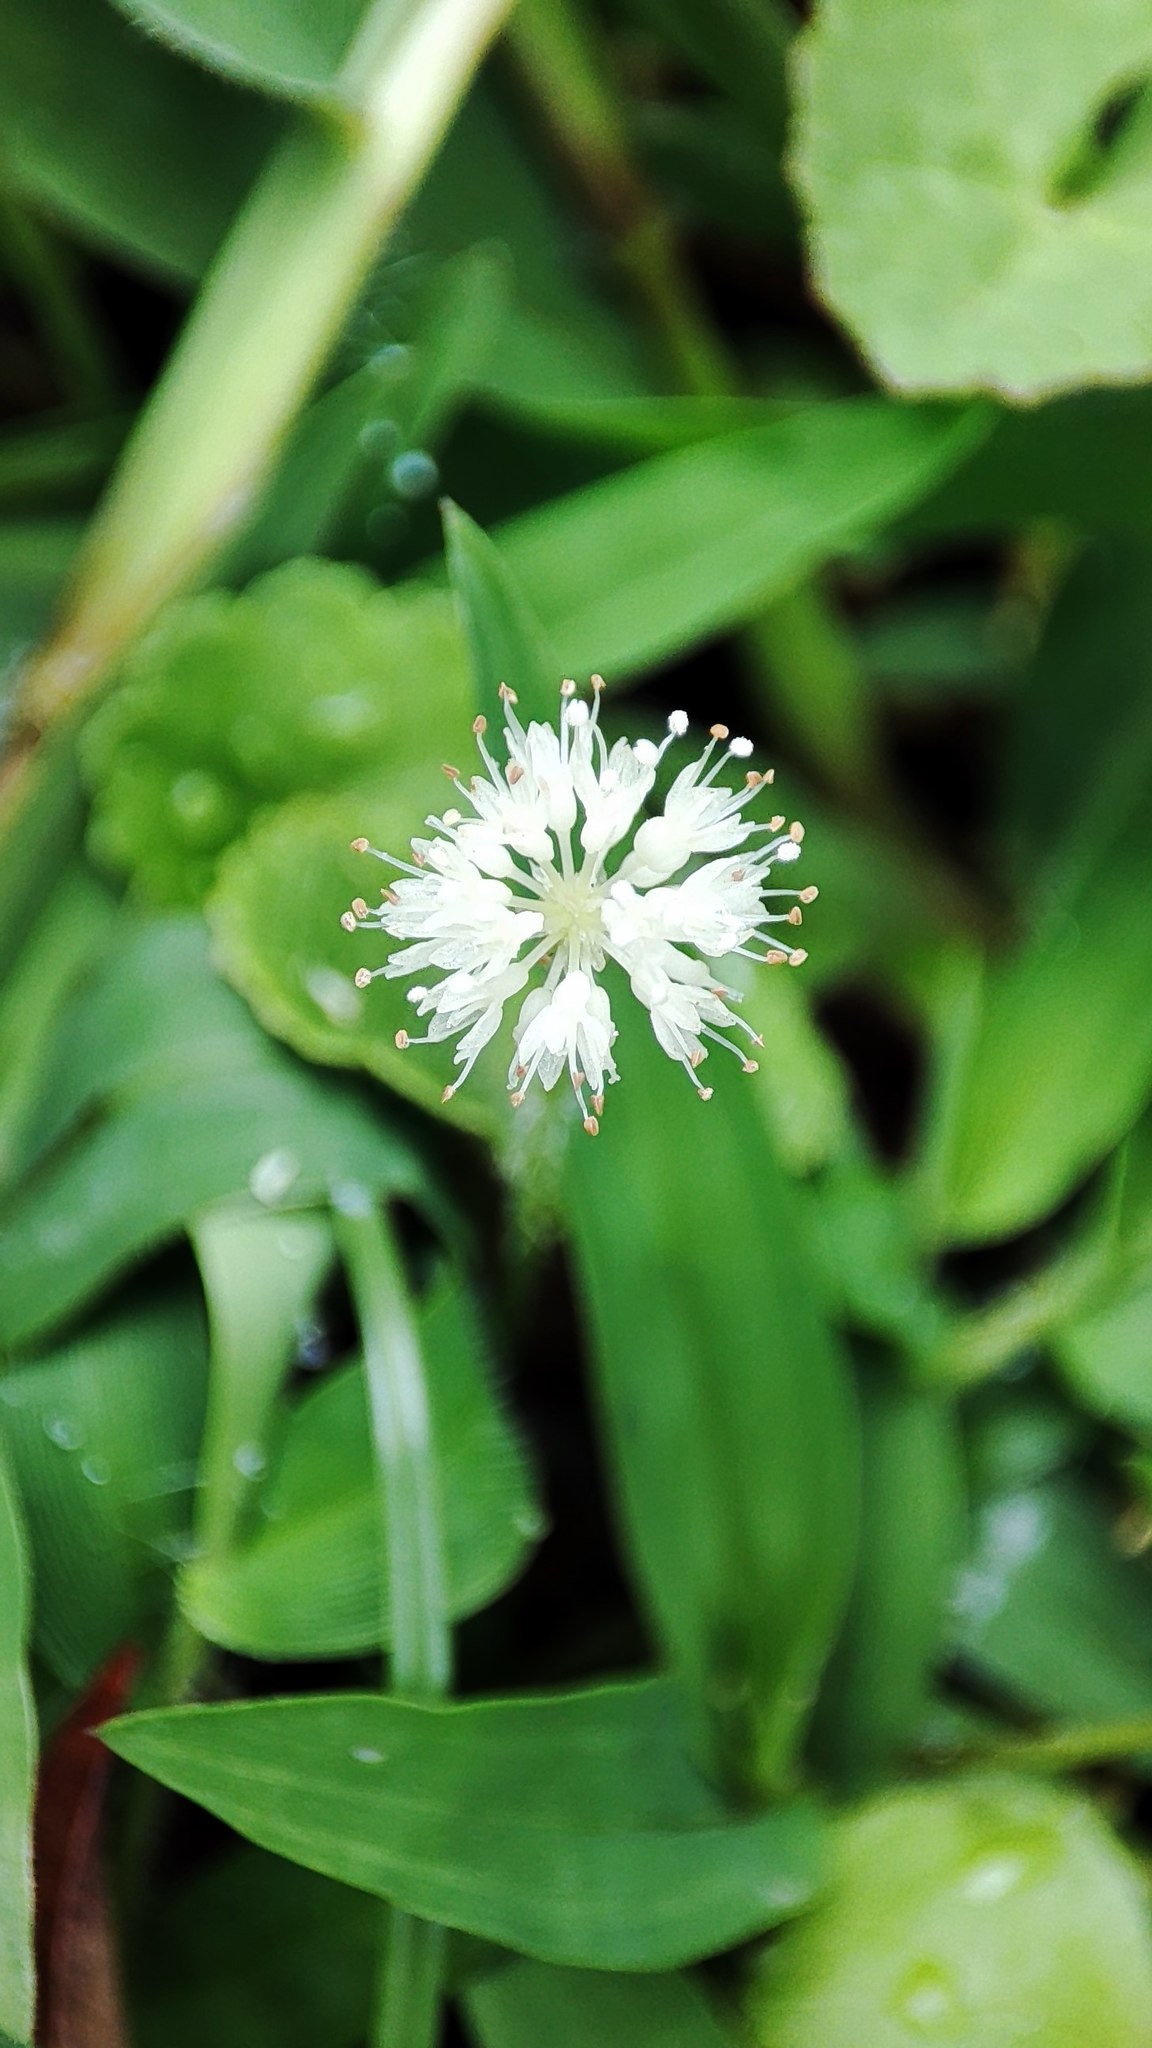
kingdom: Plantae
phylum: Tracheophyta
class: Magnoliopsida
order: Apiales
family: Araliaceae
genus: Hydrocotyle
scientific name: Hydrocotyle leucocephala
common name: Brazilian pennywort
